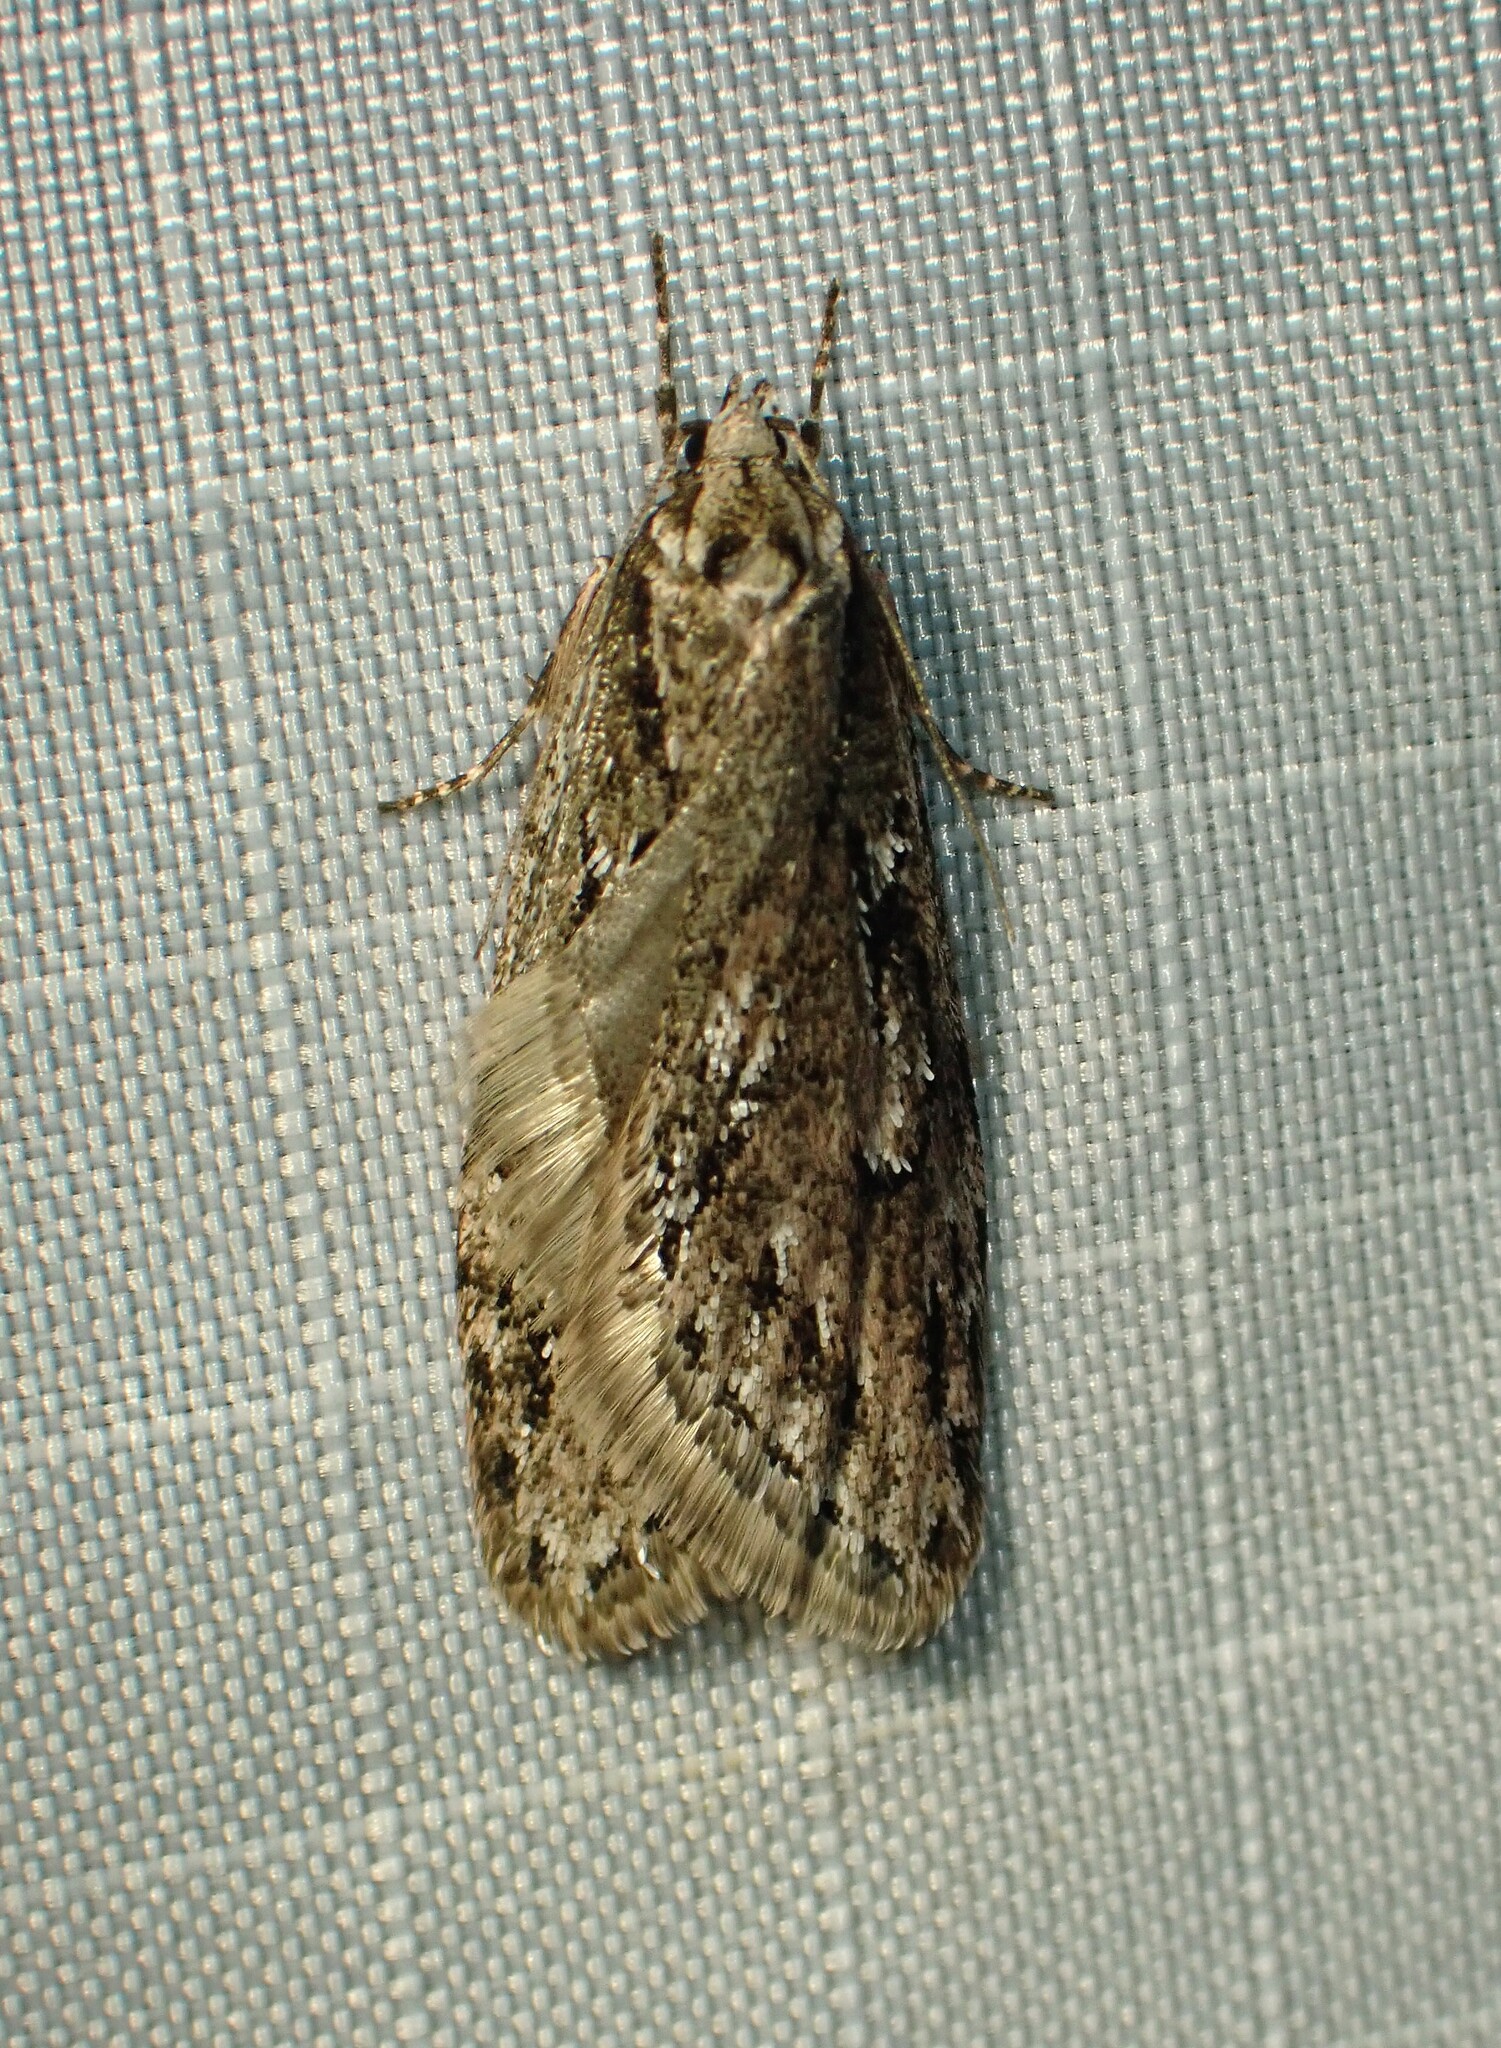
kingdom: Animalia
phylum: Arthropoda
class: Insecta
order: Lepidoptera
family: Depressariidae
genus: Semioscopis
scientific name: Semioscopis aurorella
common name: Aurora flatbody moth
